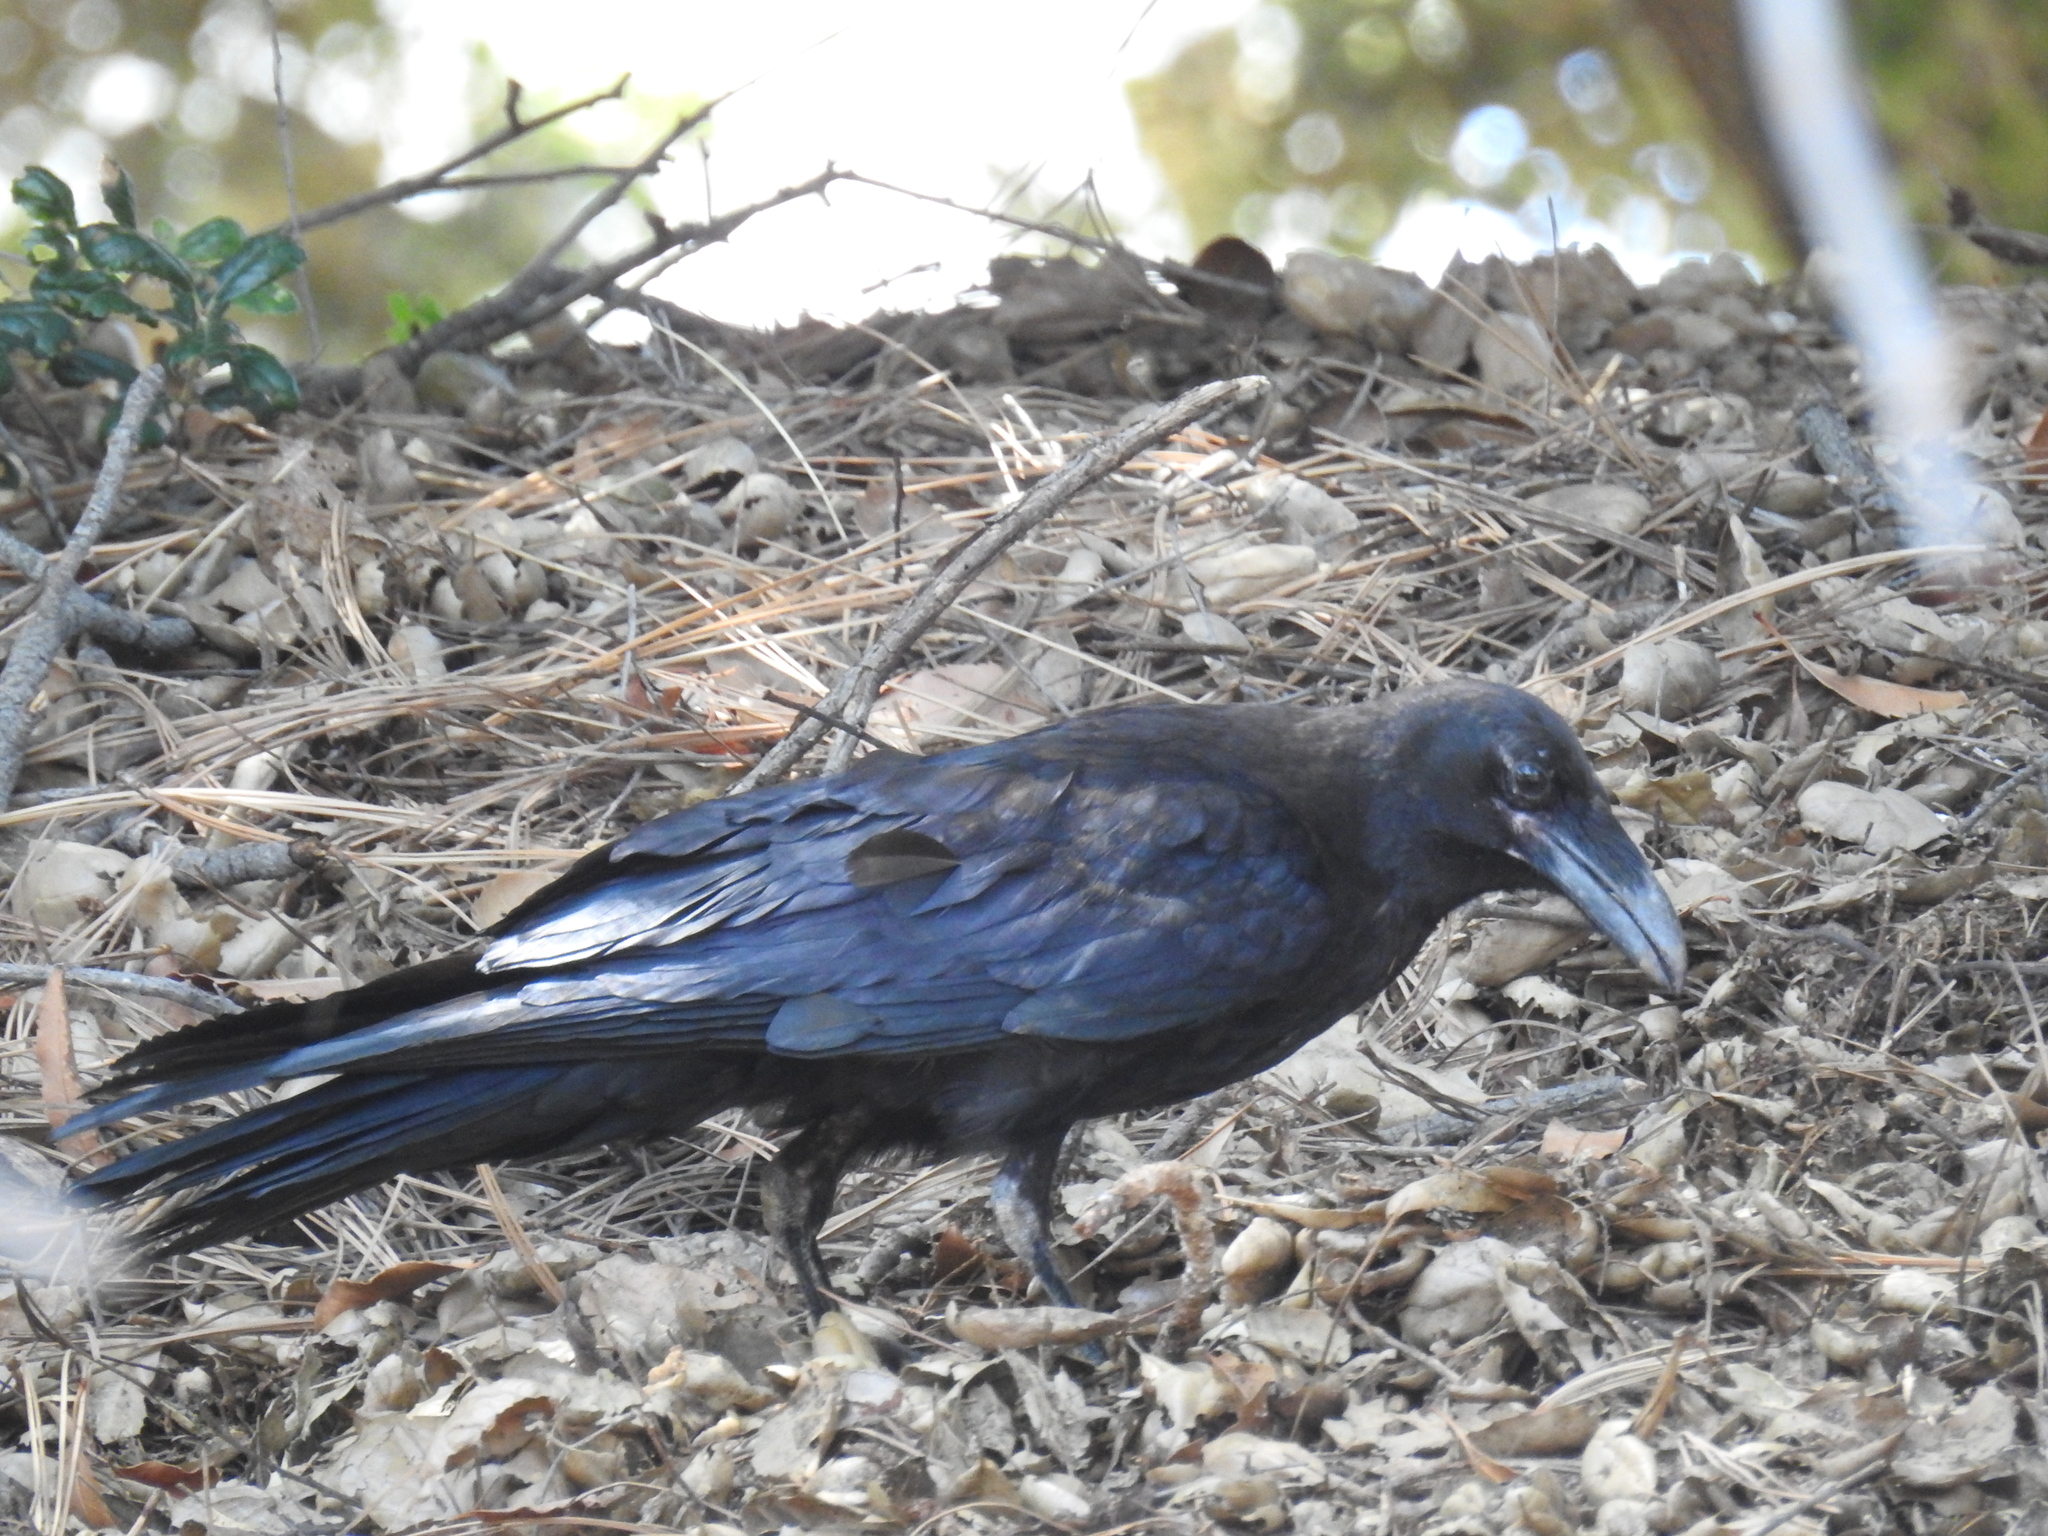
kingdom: Animalia
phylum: Chordata
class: Aves
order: Passeriformes
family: Corvidae
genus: Corvus
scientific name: Corvus corax
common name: Common raven
